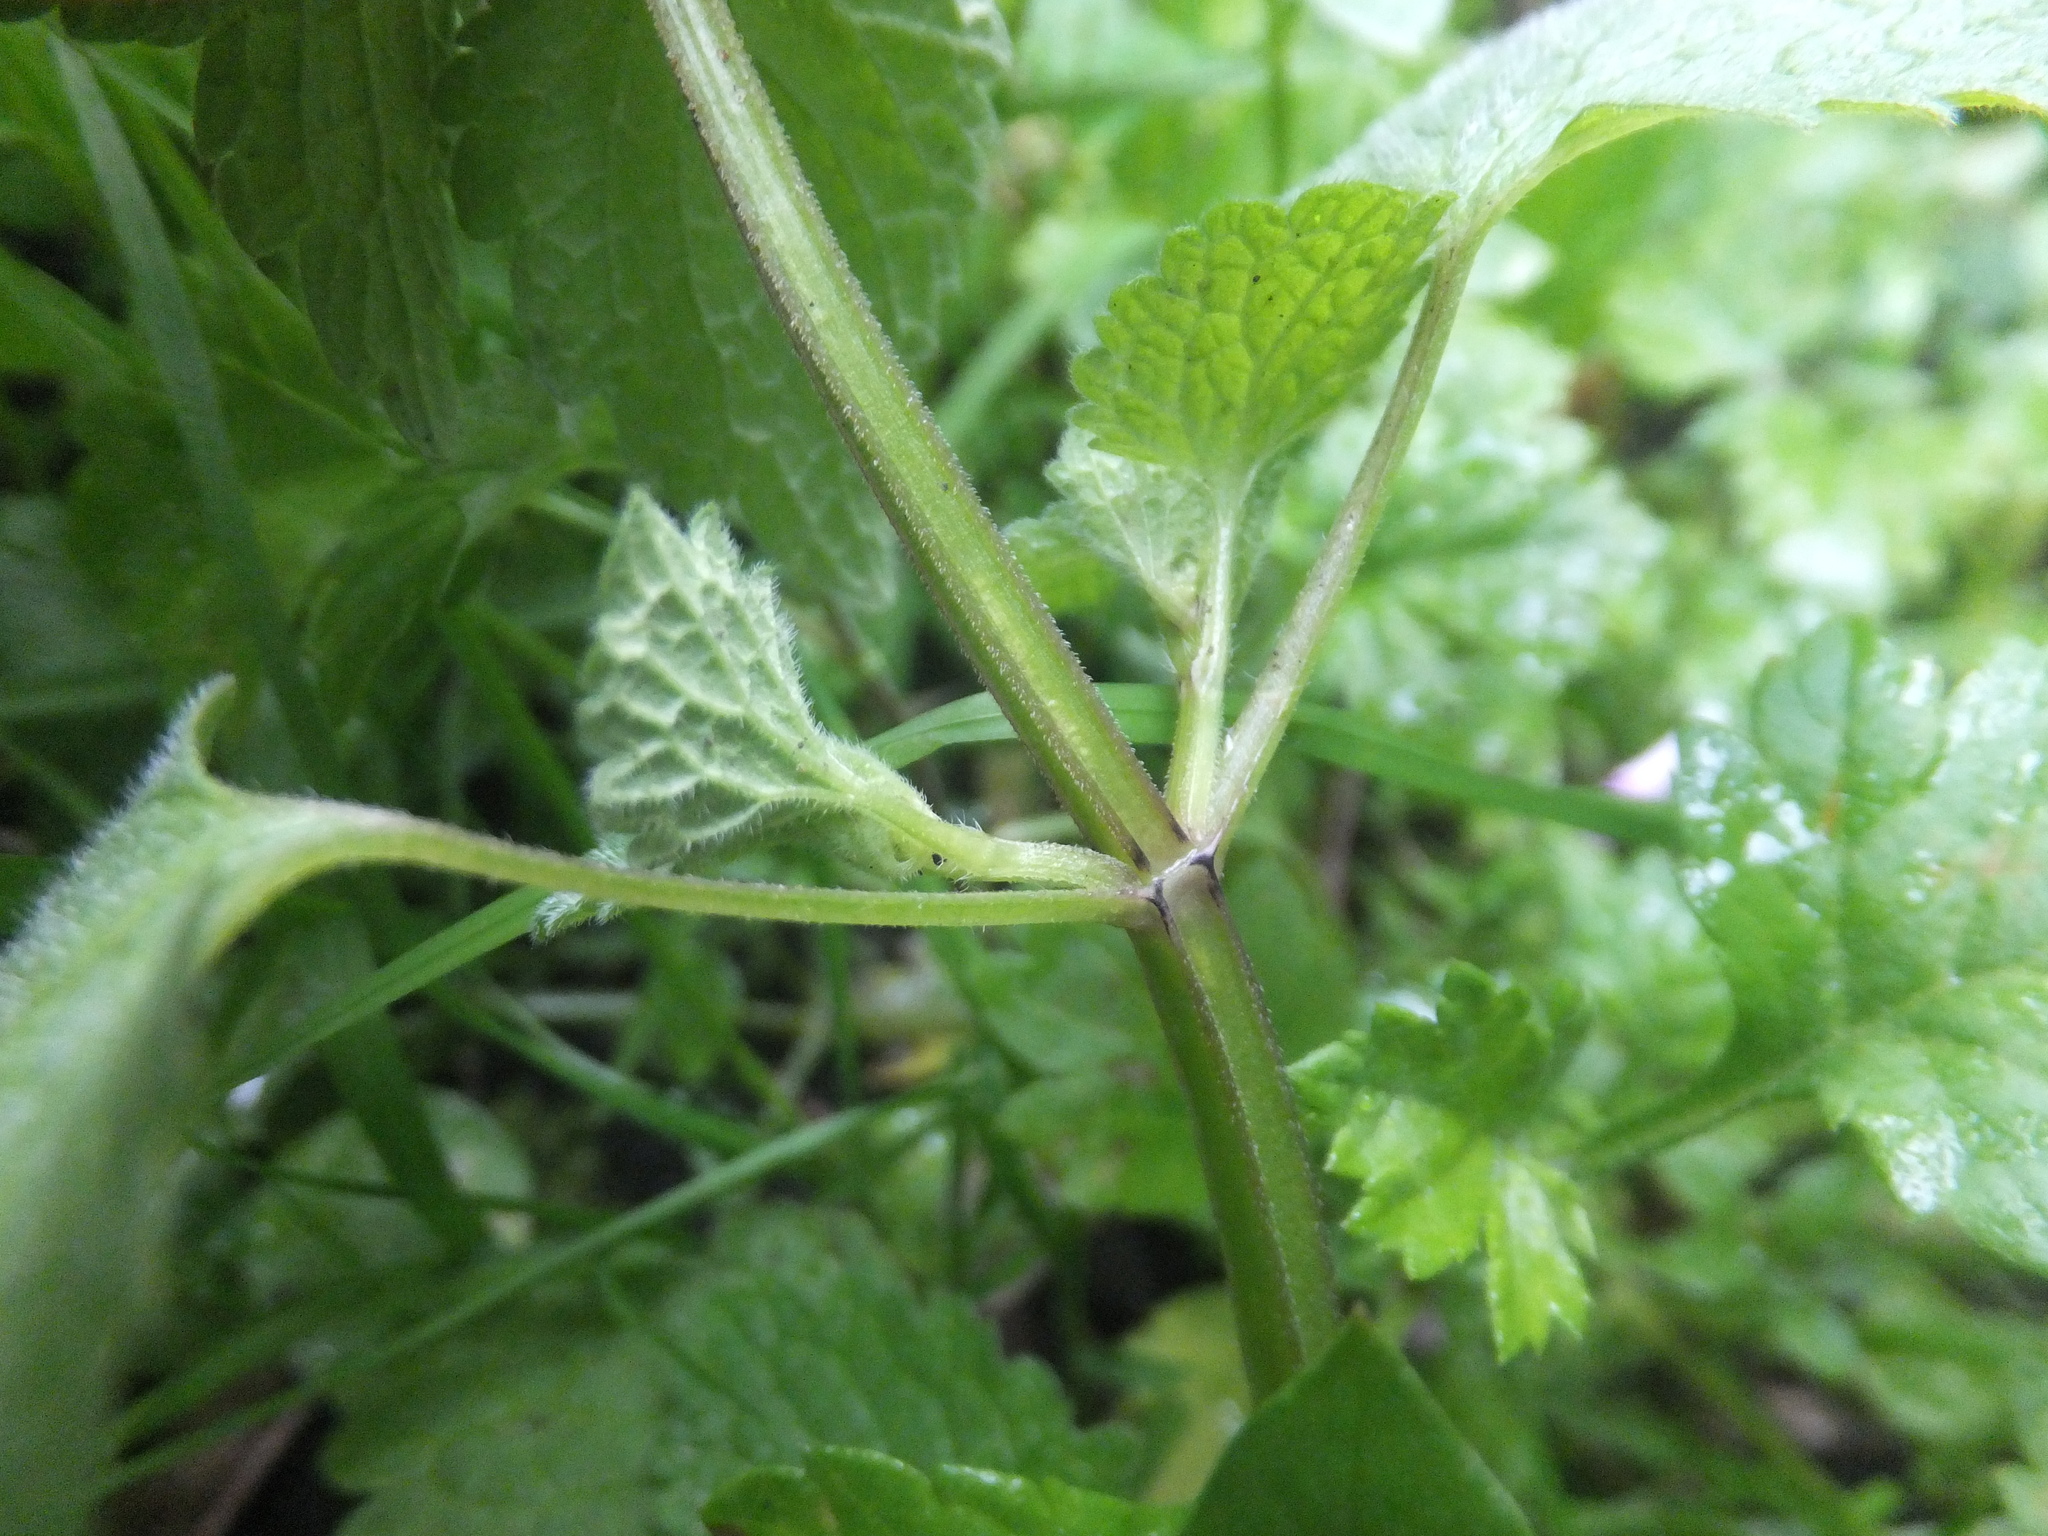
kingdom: Plantae
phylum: Tracheophyta
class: Magnoliopsida
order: Lamiales
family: Lamiaceae
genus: Lamium
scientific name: Lamium purpureum
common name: Red dead-nettle
